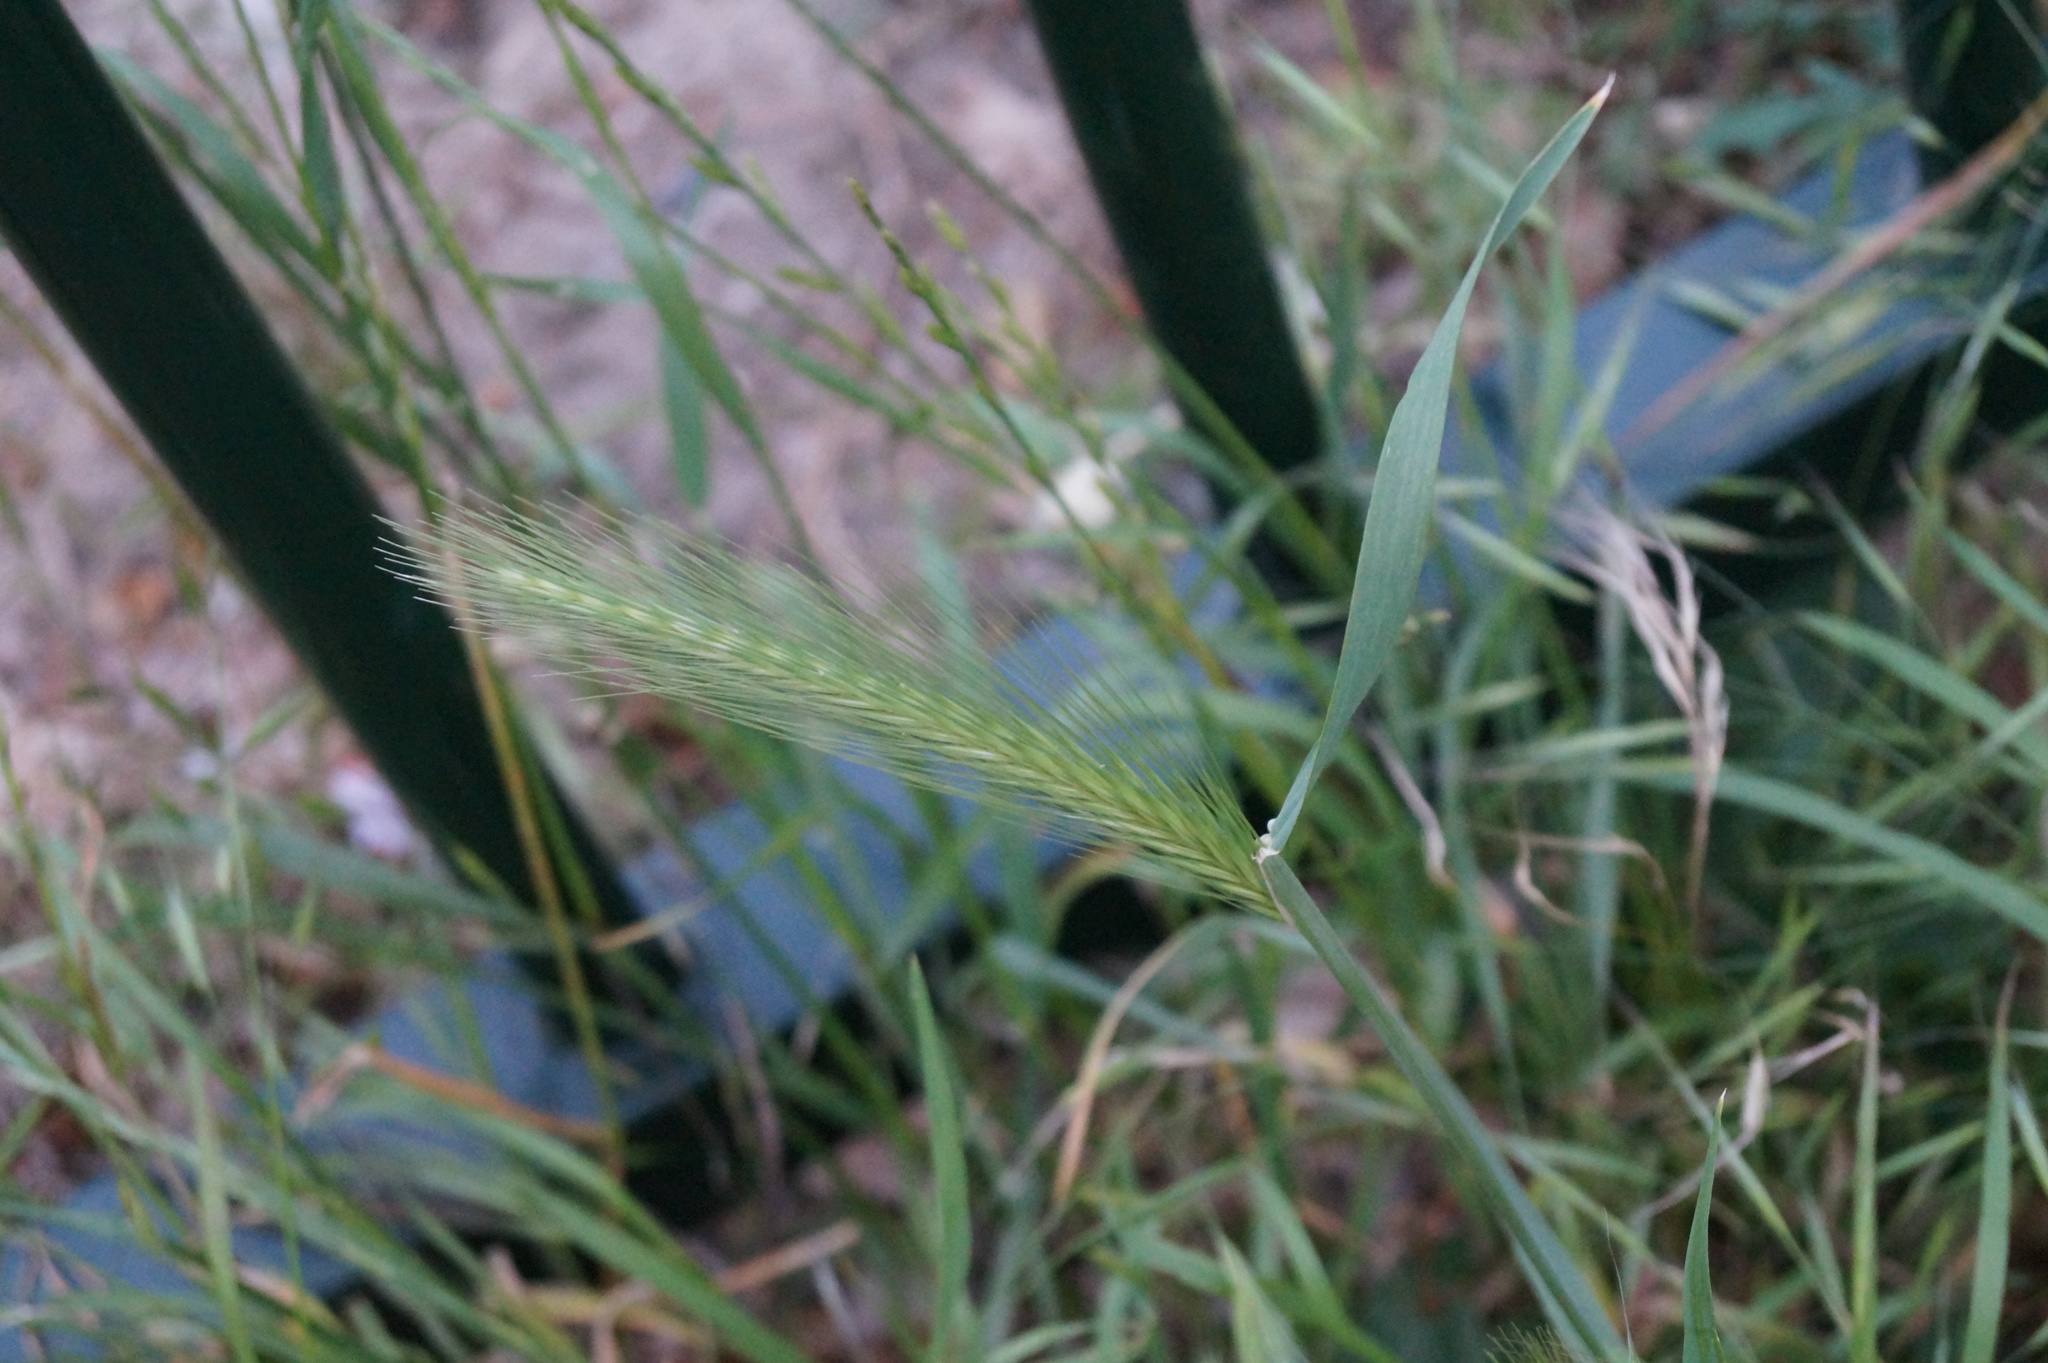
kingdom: Plantae
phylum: Tracheophyta
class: Liliopsida
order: Poales
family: Poaceae
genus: Hordeum
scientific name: Hordeum murinum
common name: Wall barley
